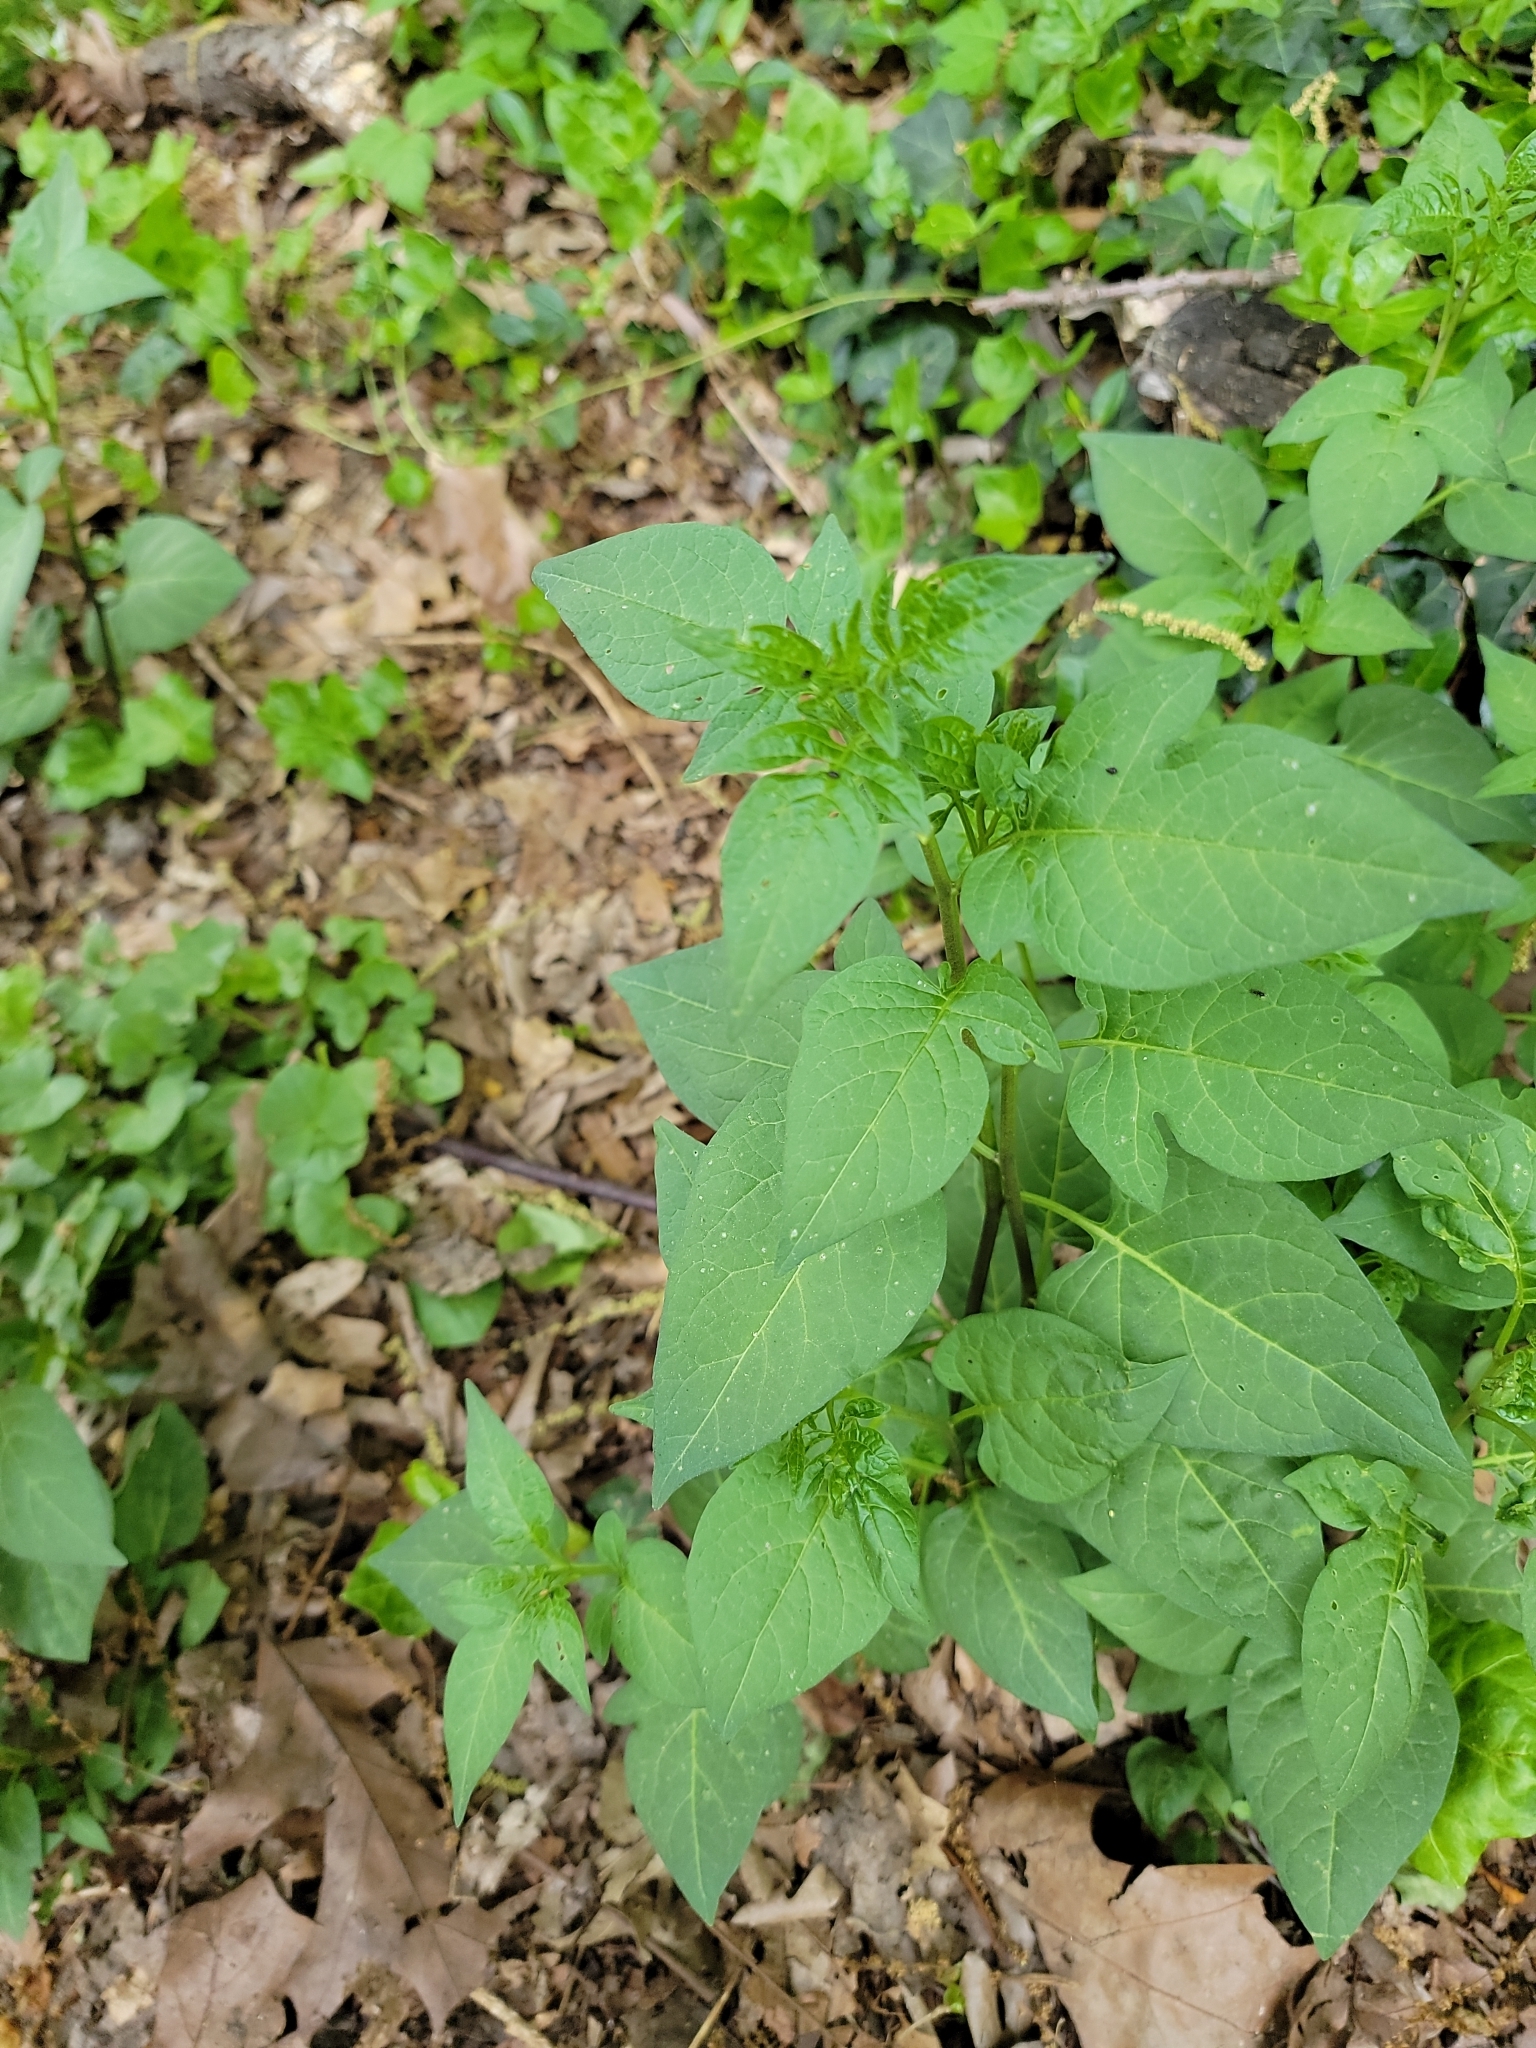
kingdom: Plantae
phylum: Tracheophyta
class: Magnoliopsida
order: Solanales
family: Solanaceae
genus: Solanum
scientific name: Solanum dulcamara
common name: Climbing nightshade
